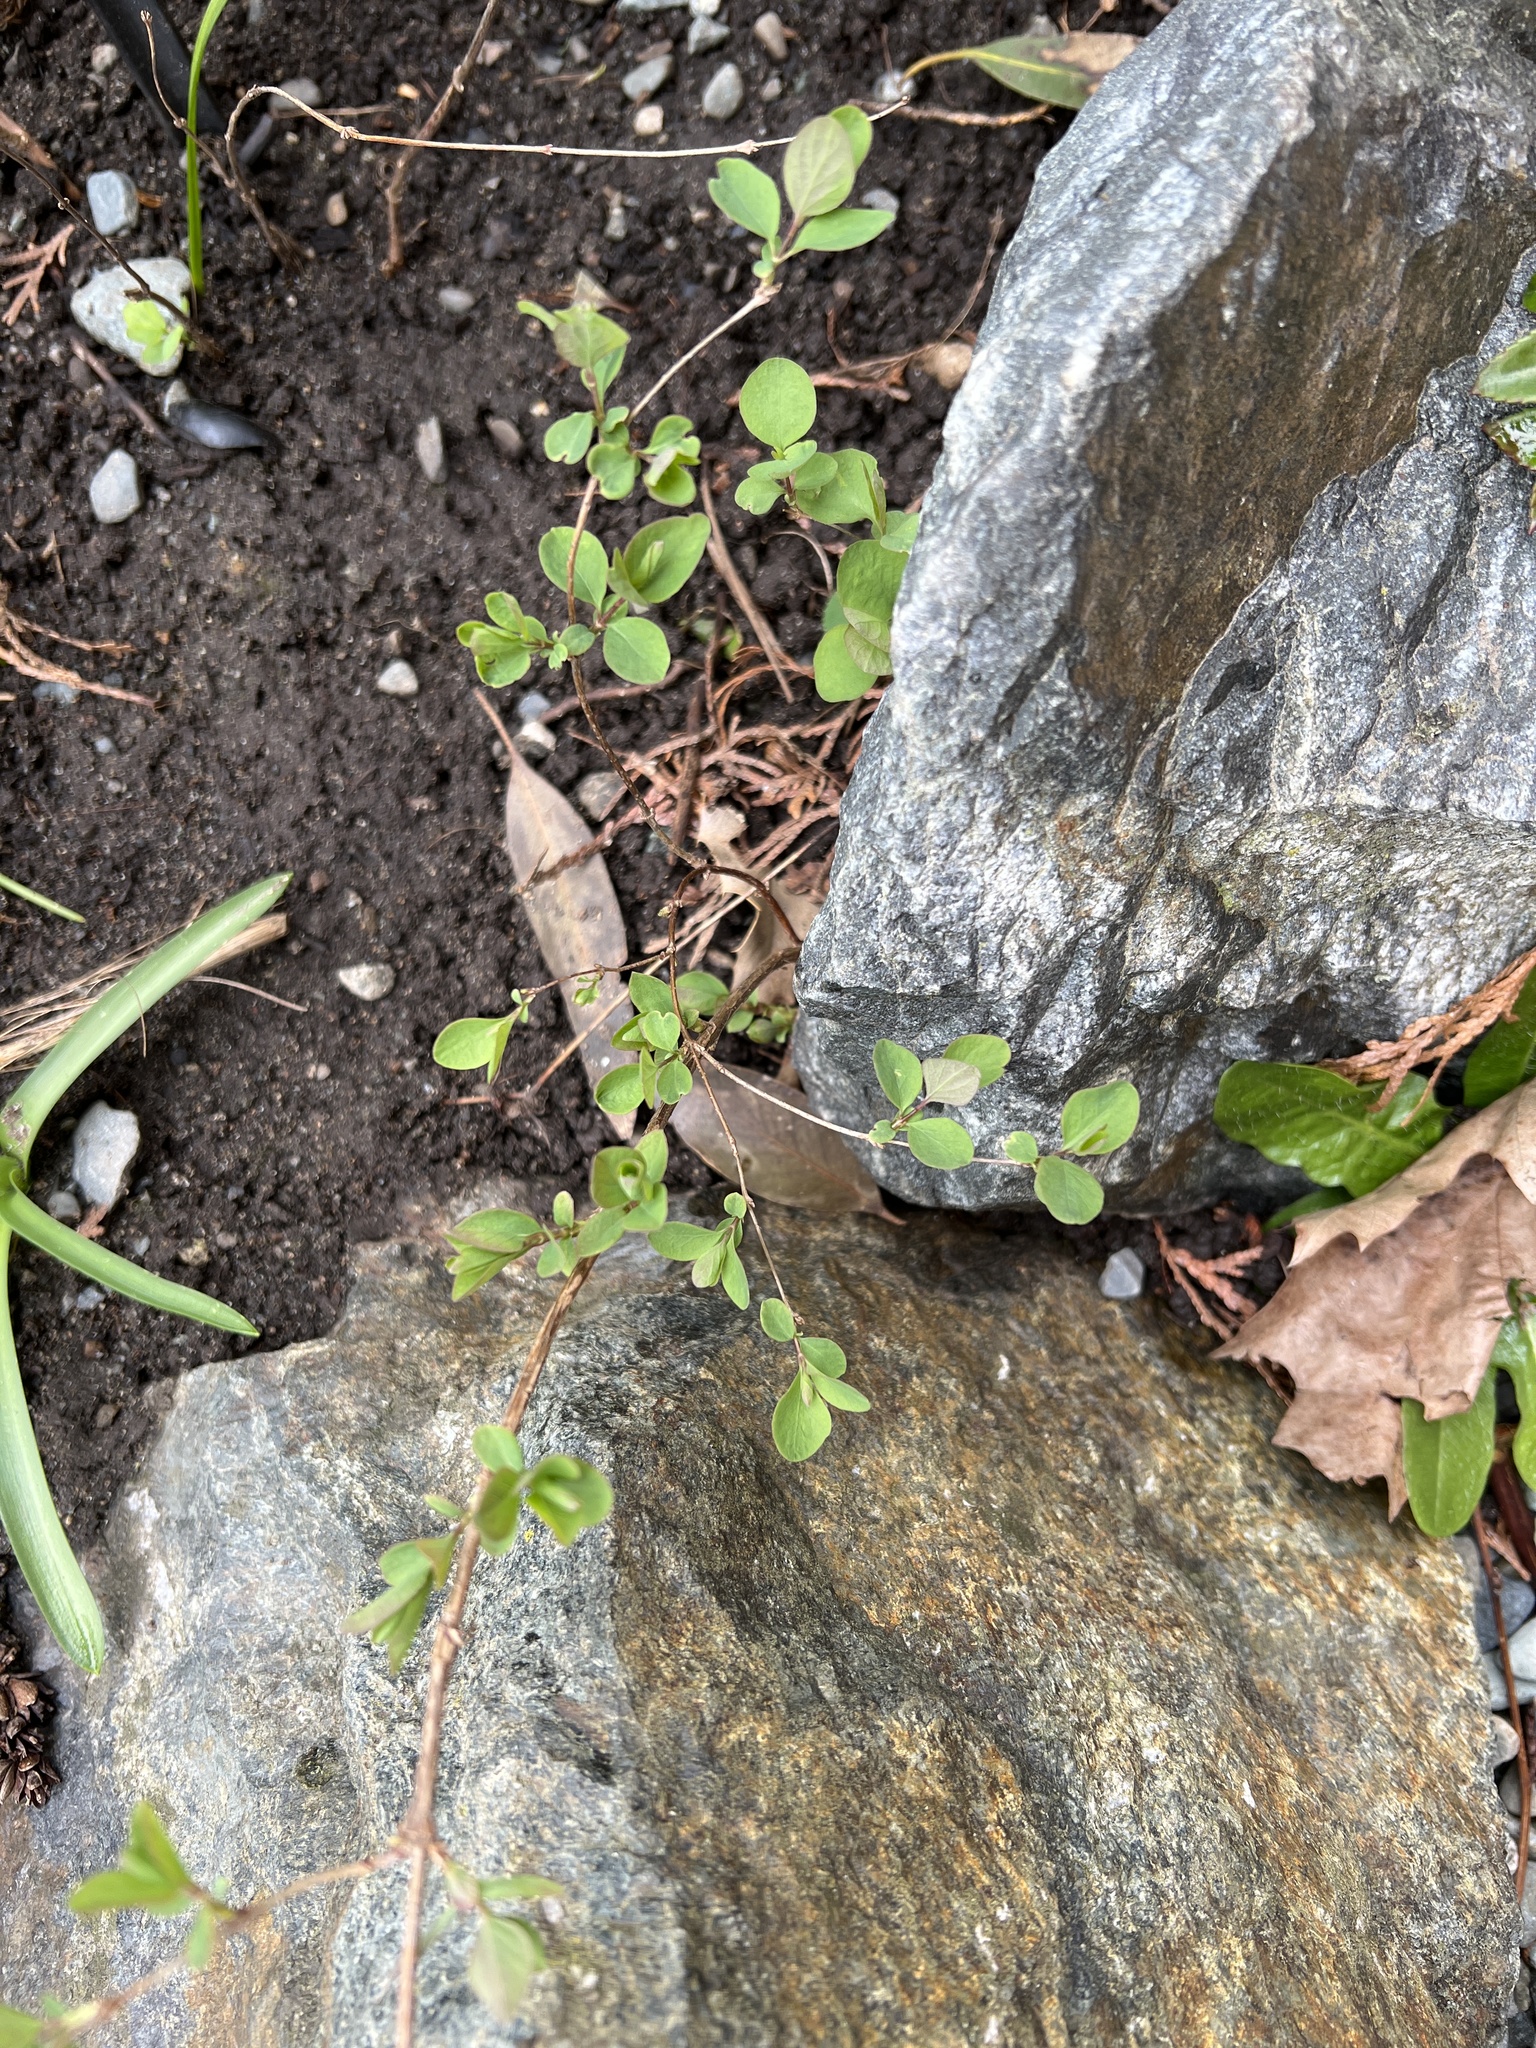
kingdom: Plantae
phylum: Tracheophyta
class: Magnoliopsida
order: Dipsacales
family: Caprifoliaceae
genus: Symphoricarpos
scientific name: Symphoricarpos mollis
